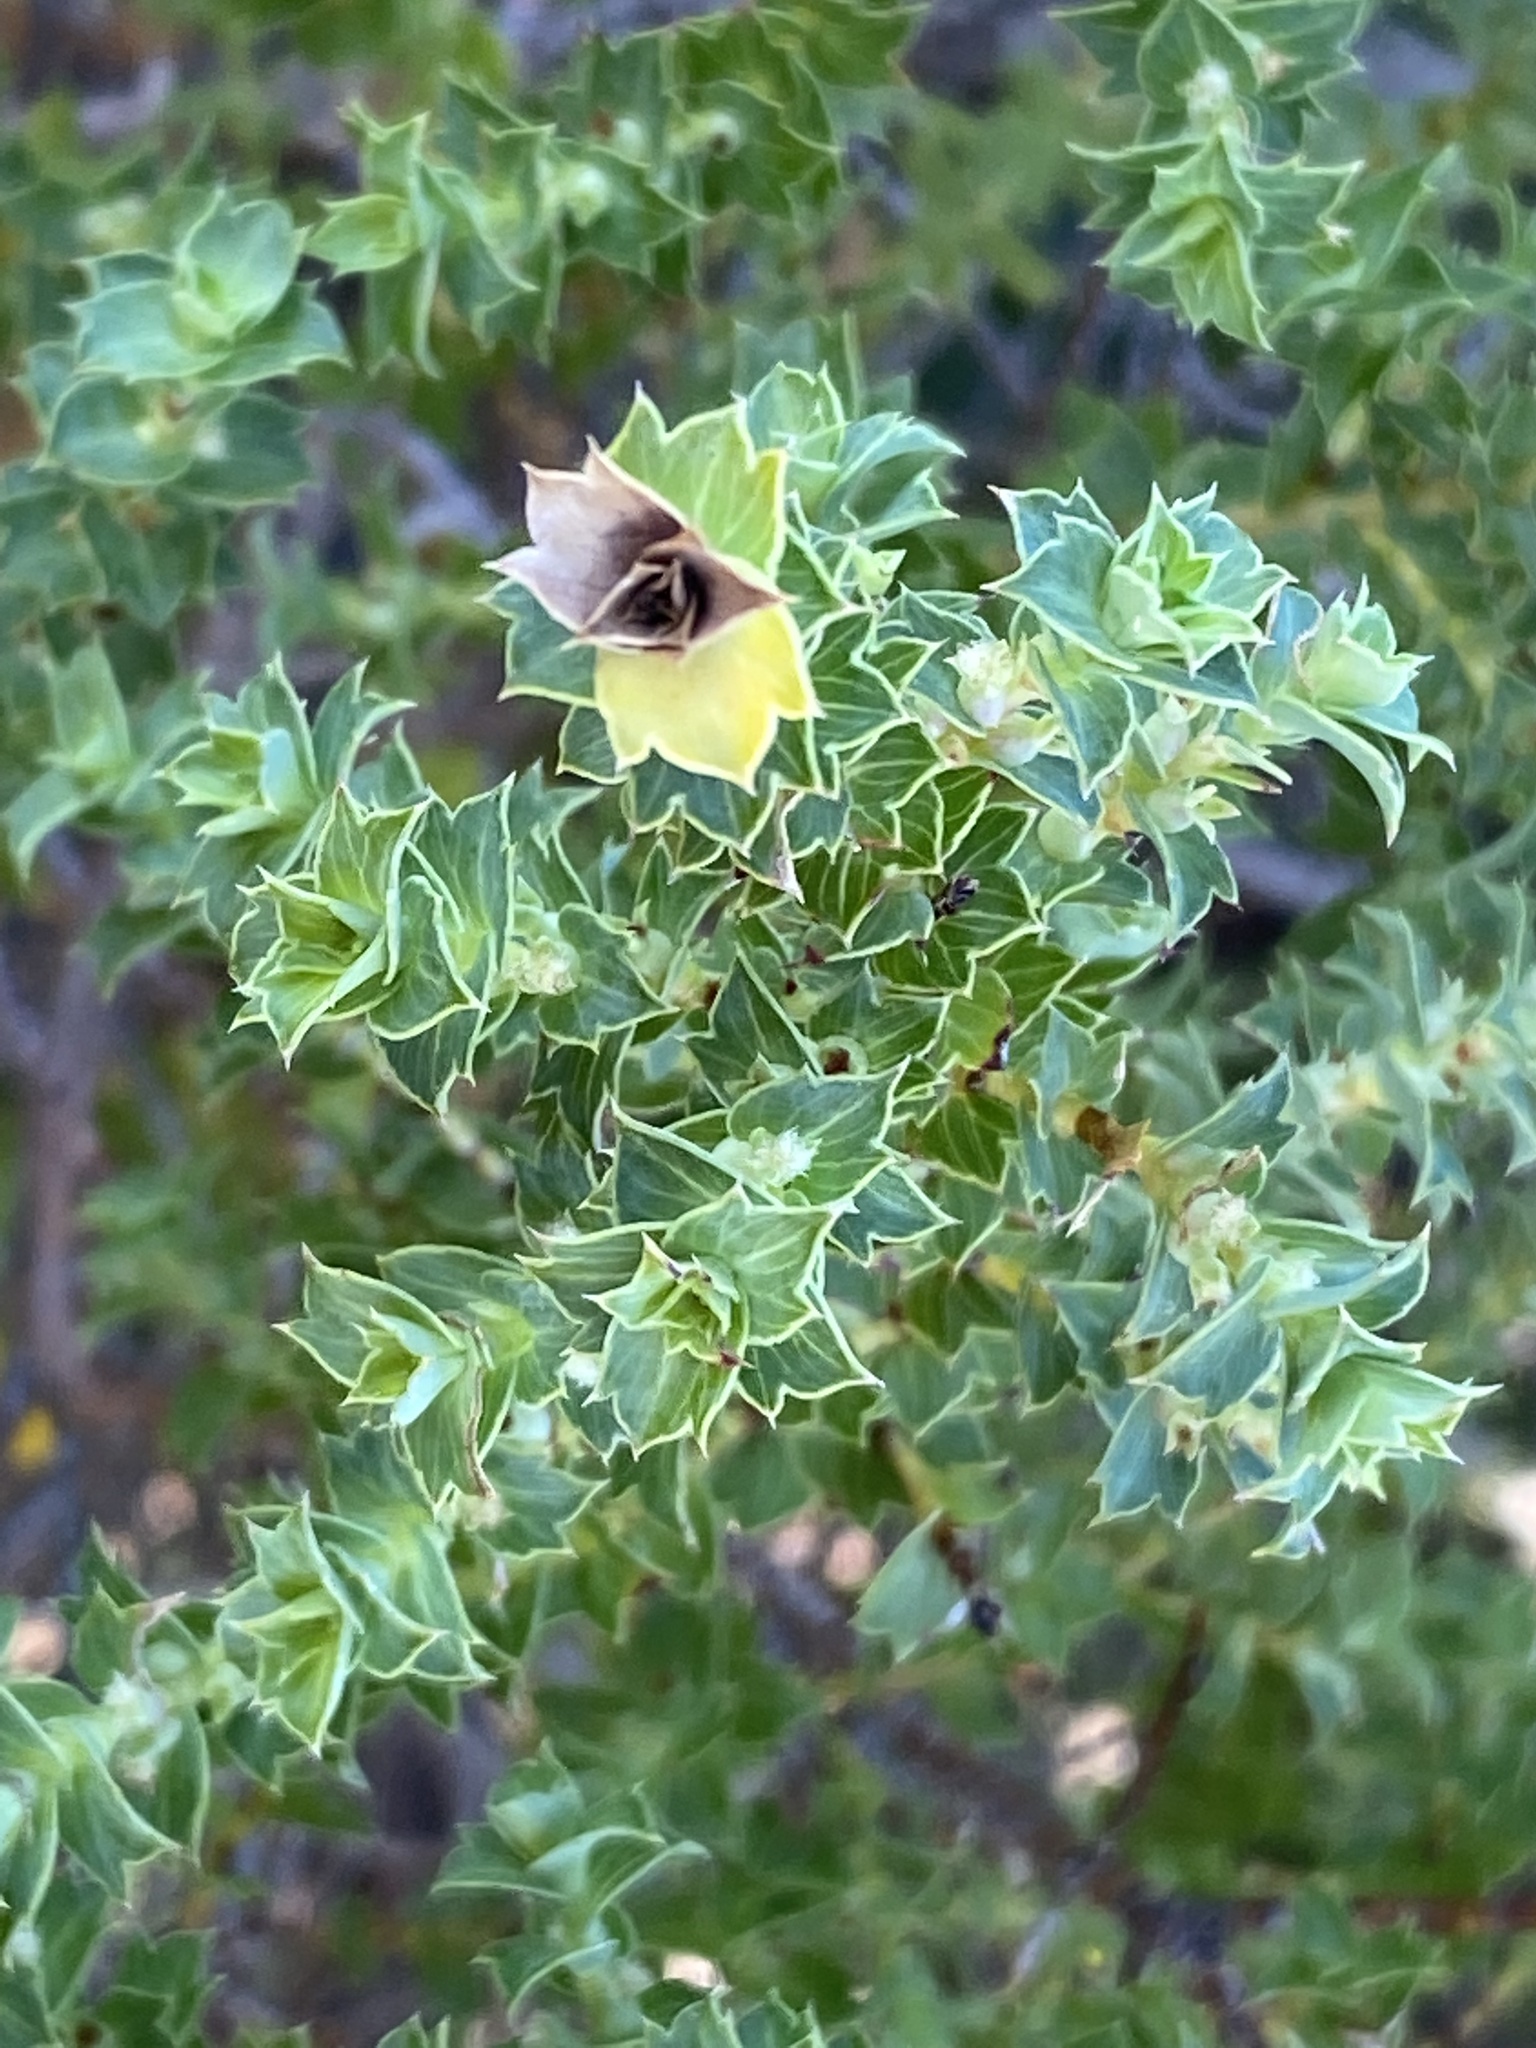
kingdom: Plantae
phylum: Tracheophyta
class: Magnoliopsida
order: Rosales
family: Rosaceae
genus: Cliffortia
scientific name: Cliffortia schlechteri
